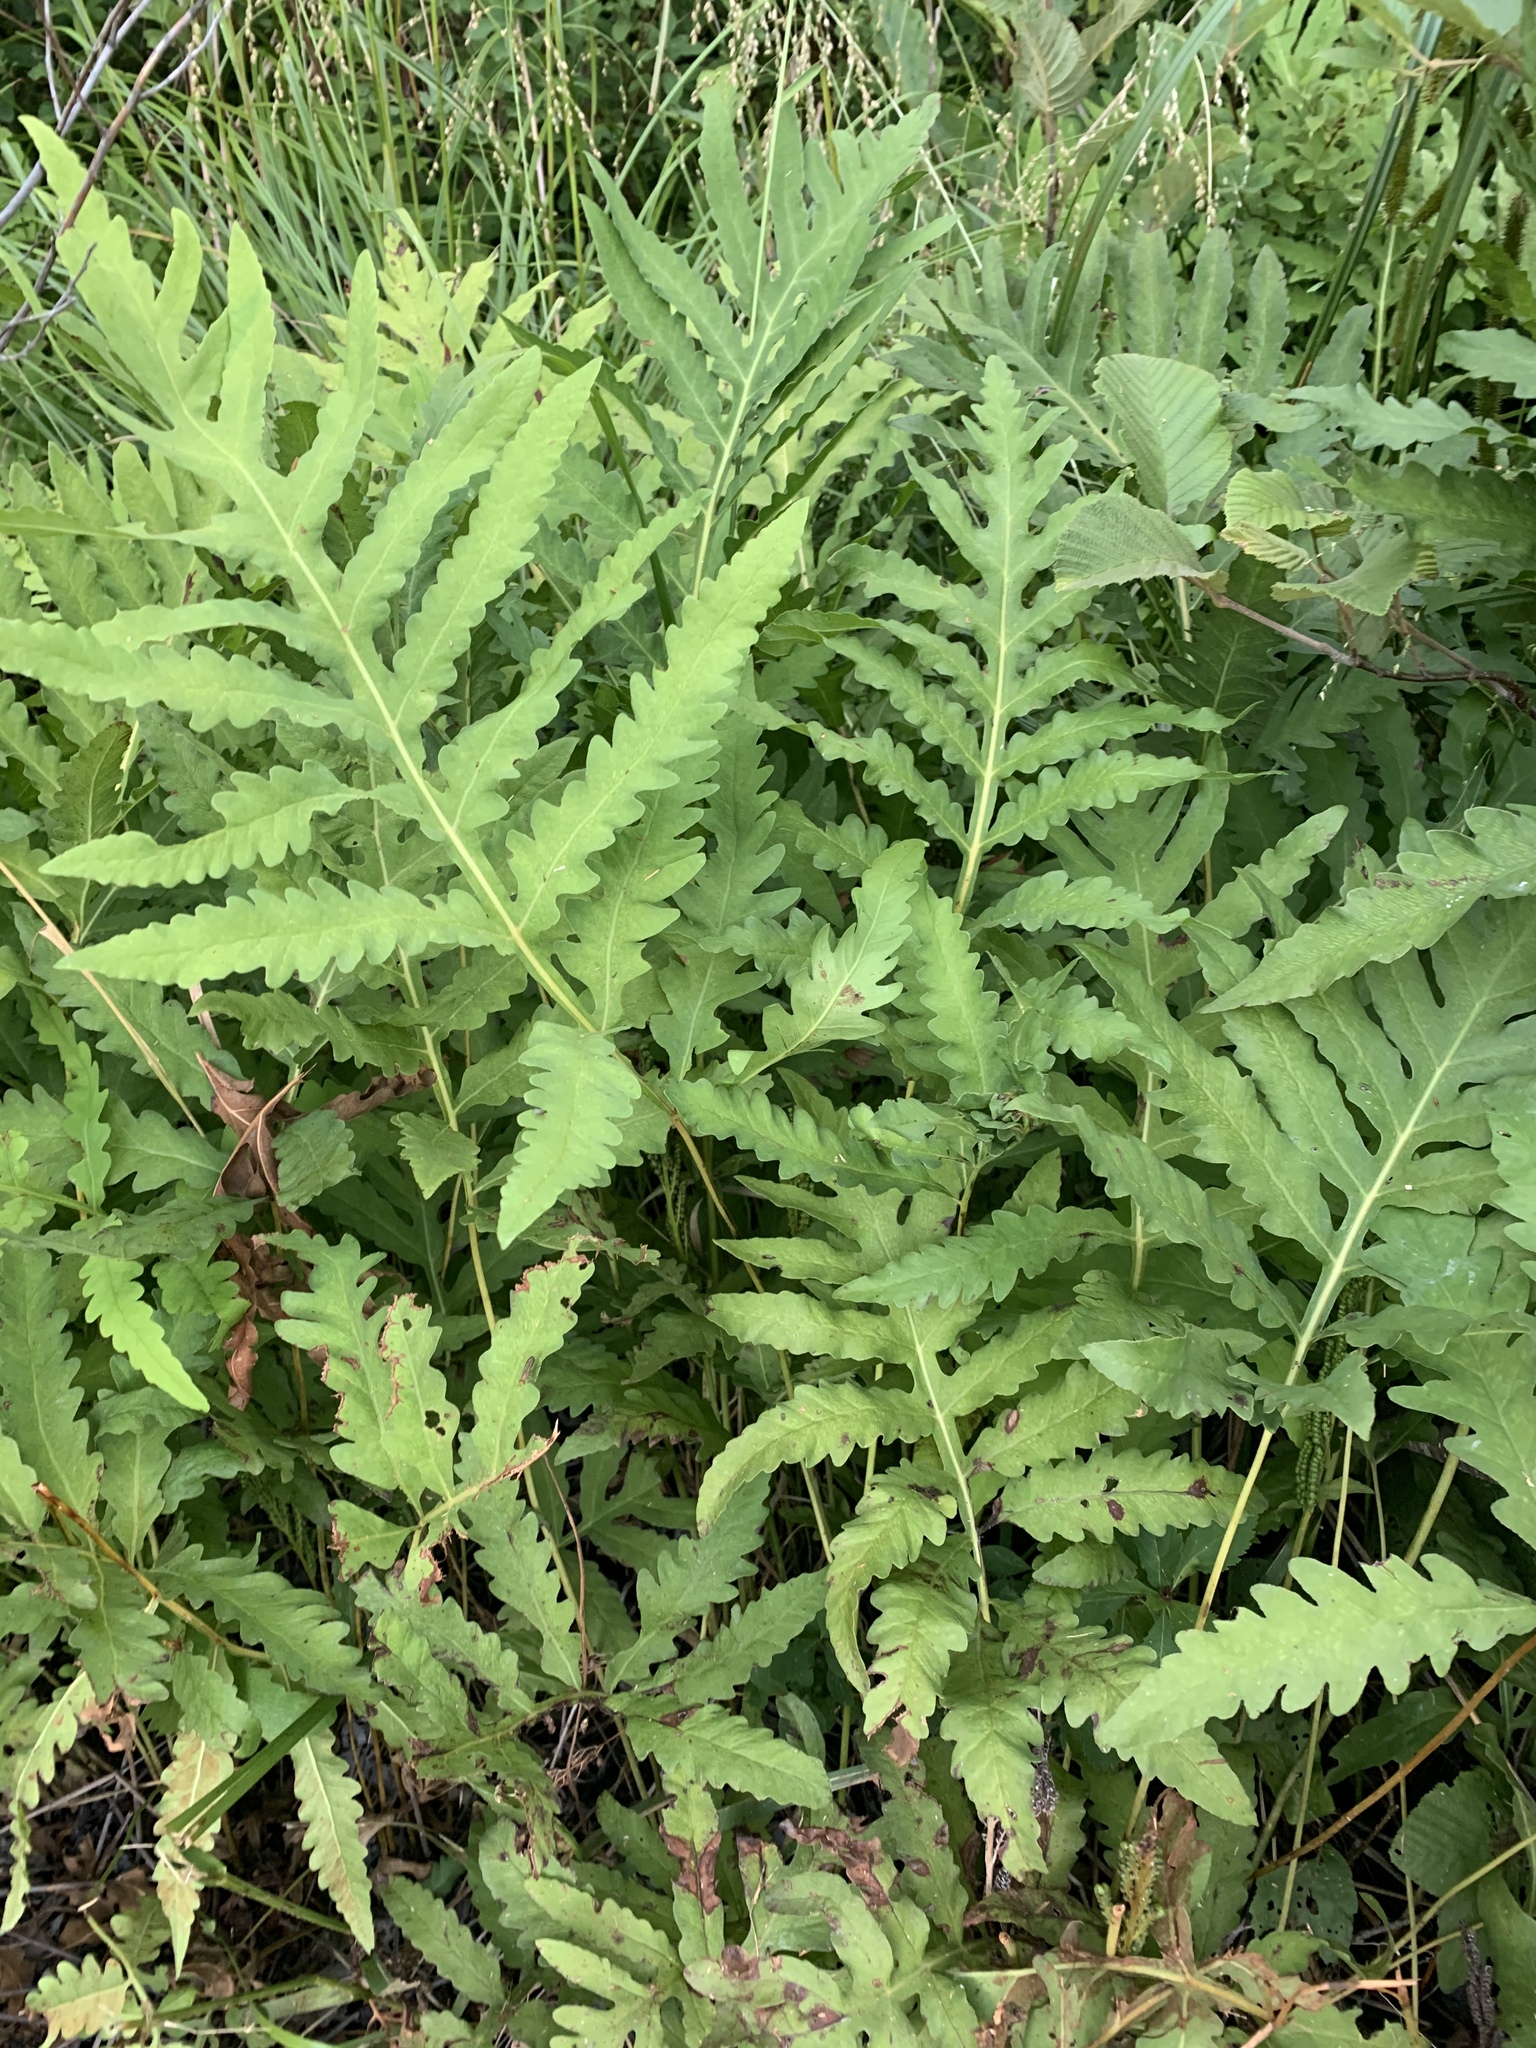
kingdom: Plantae
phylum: Tracheophyta
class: Polypodiopsida
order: Polypodiales
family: Onocleaceae
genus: Onoclea
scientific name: Onoclea sensibilis
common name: Sensitive fern
